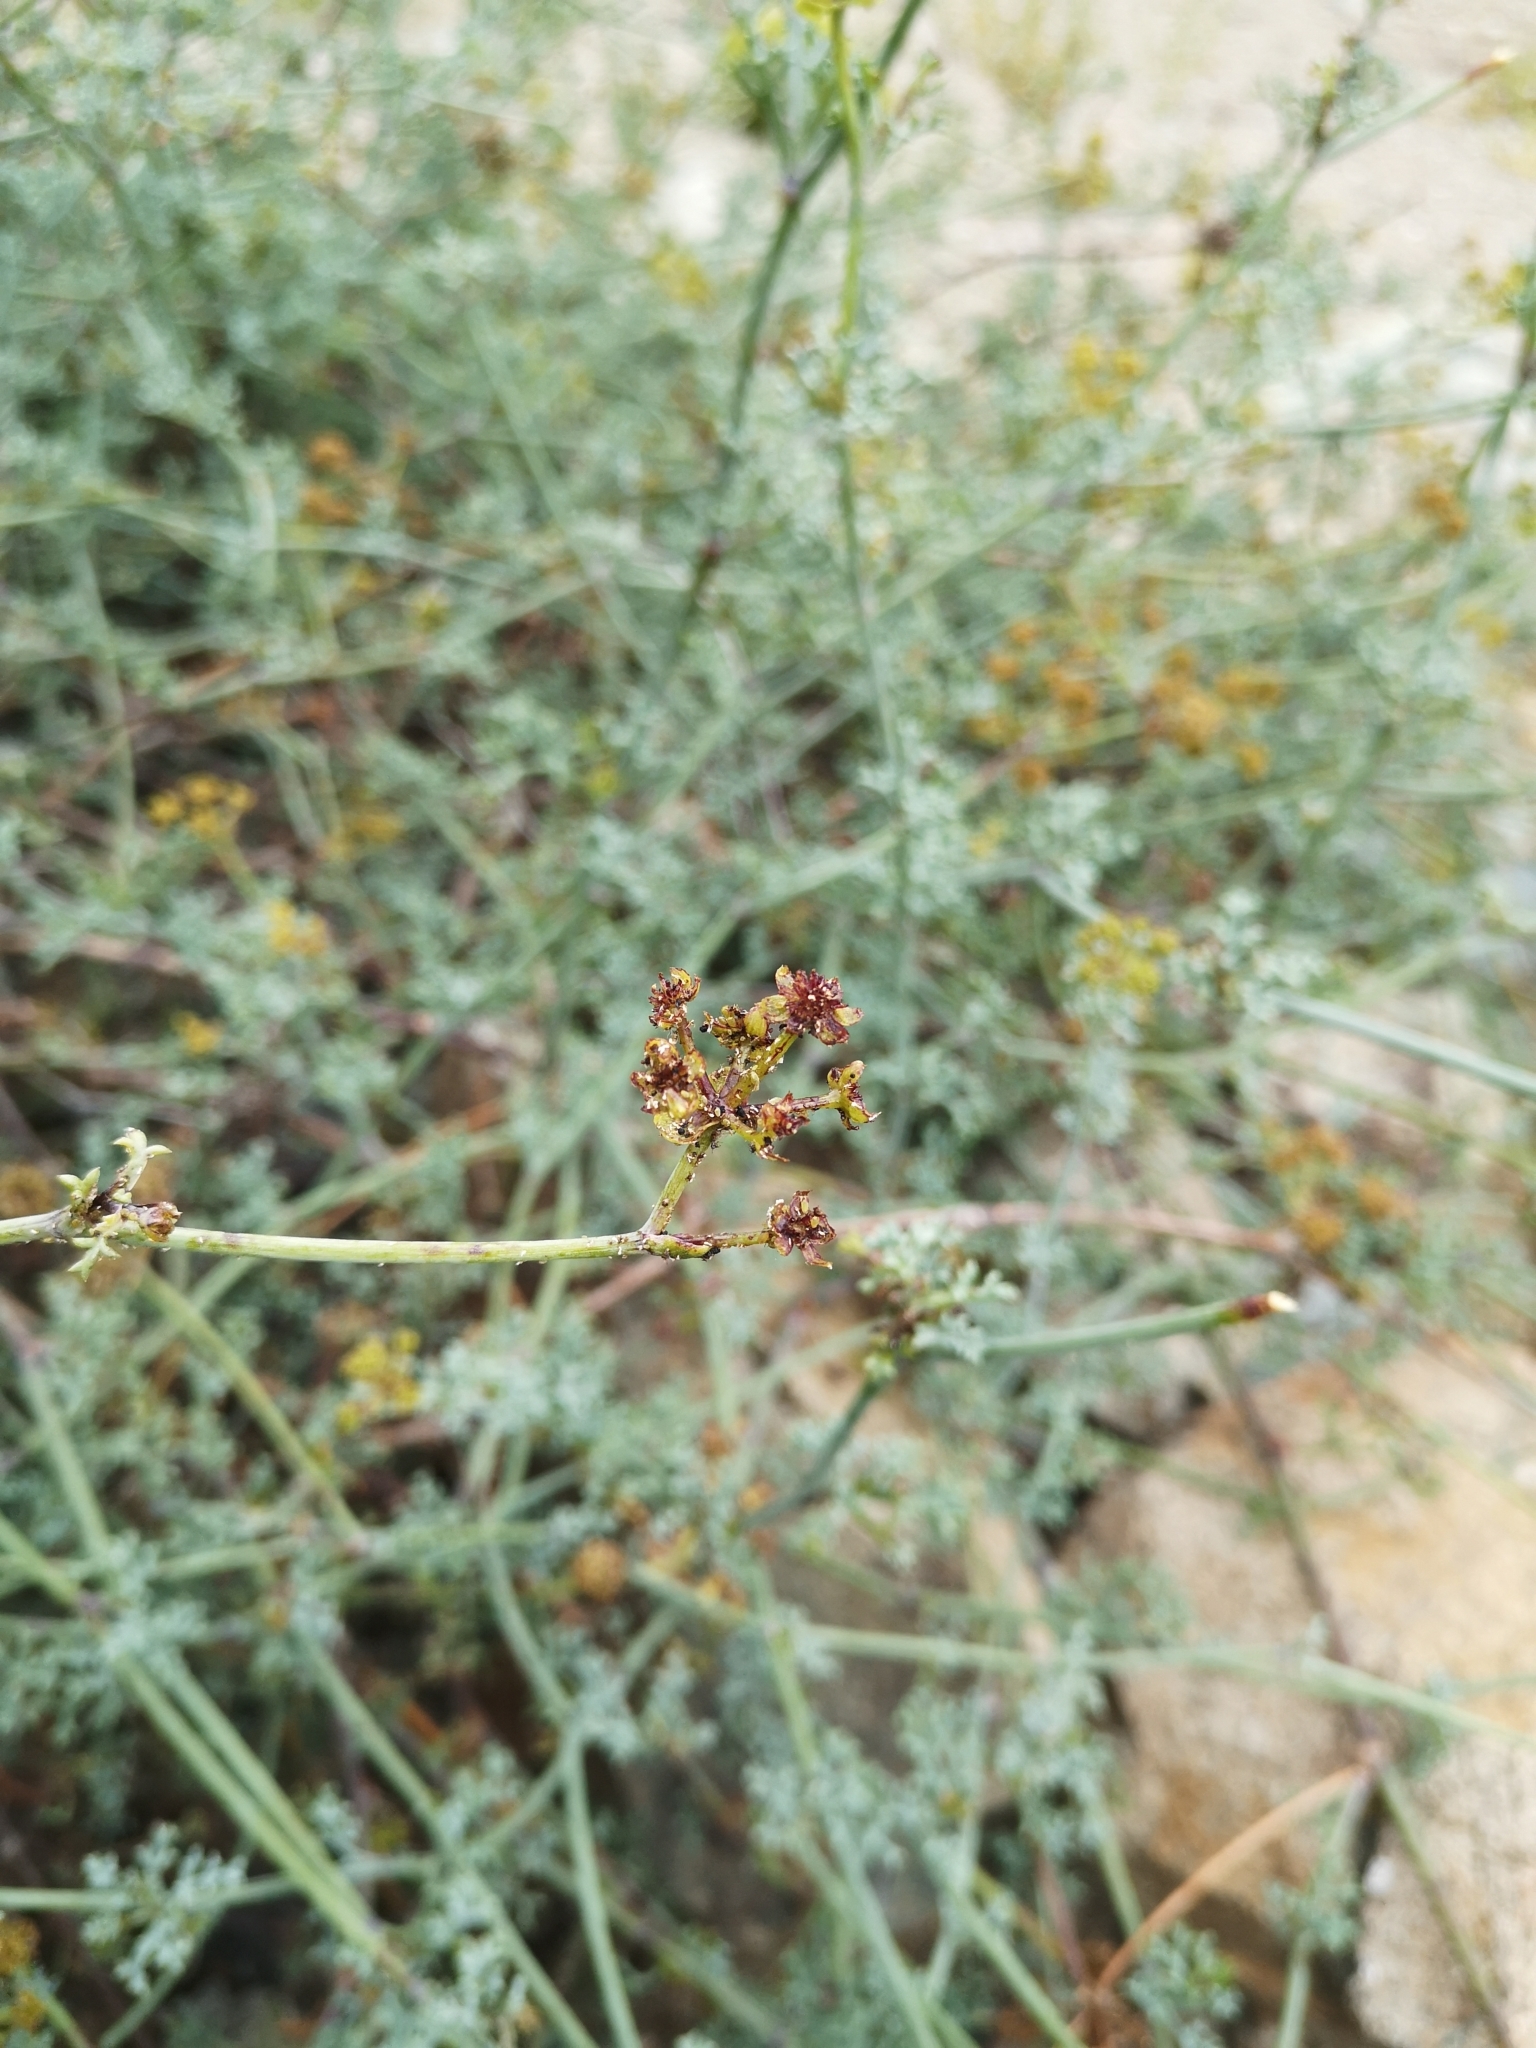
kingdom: Plantae
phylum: Tracheophyta
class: Magnoliopsida
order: Apiales
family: Apiaceae
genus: Eremocharis
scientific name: Eremocharis fruticosa
